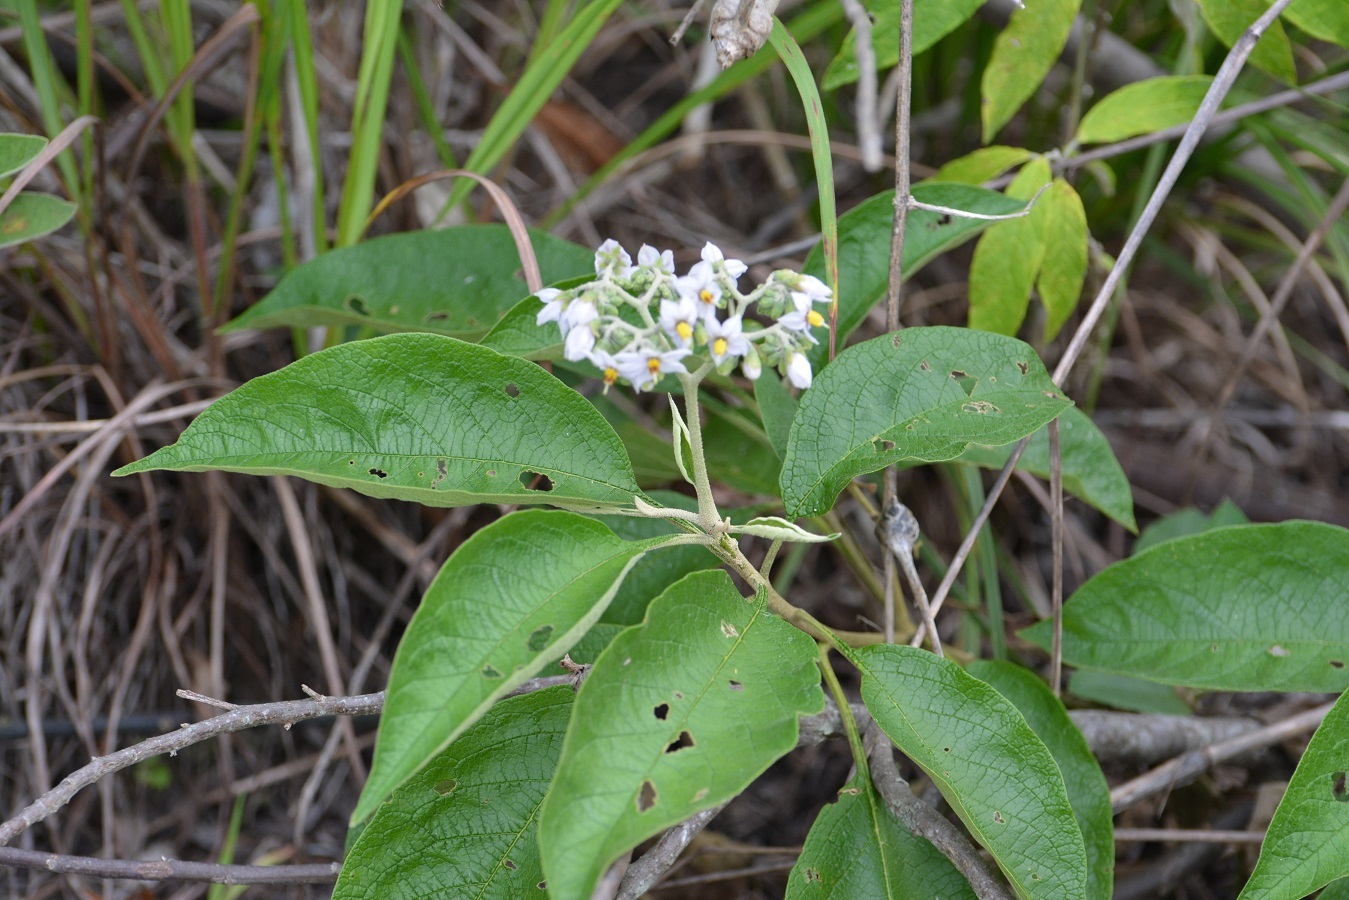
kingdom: Plantae
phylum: Tracheophyta
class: Magnoliopsida
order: Solanales
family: Solanaceae
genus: Solanum
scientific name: Solanum chiapasense
